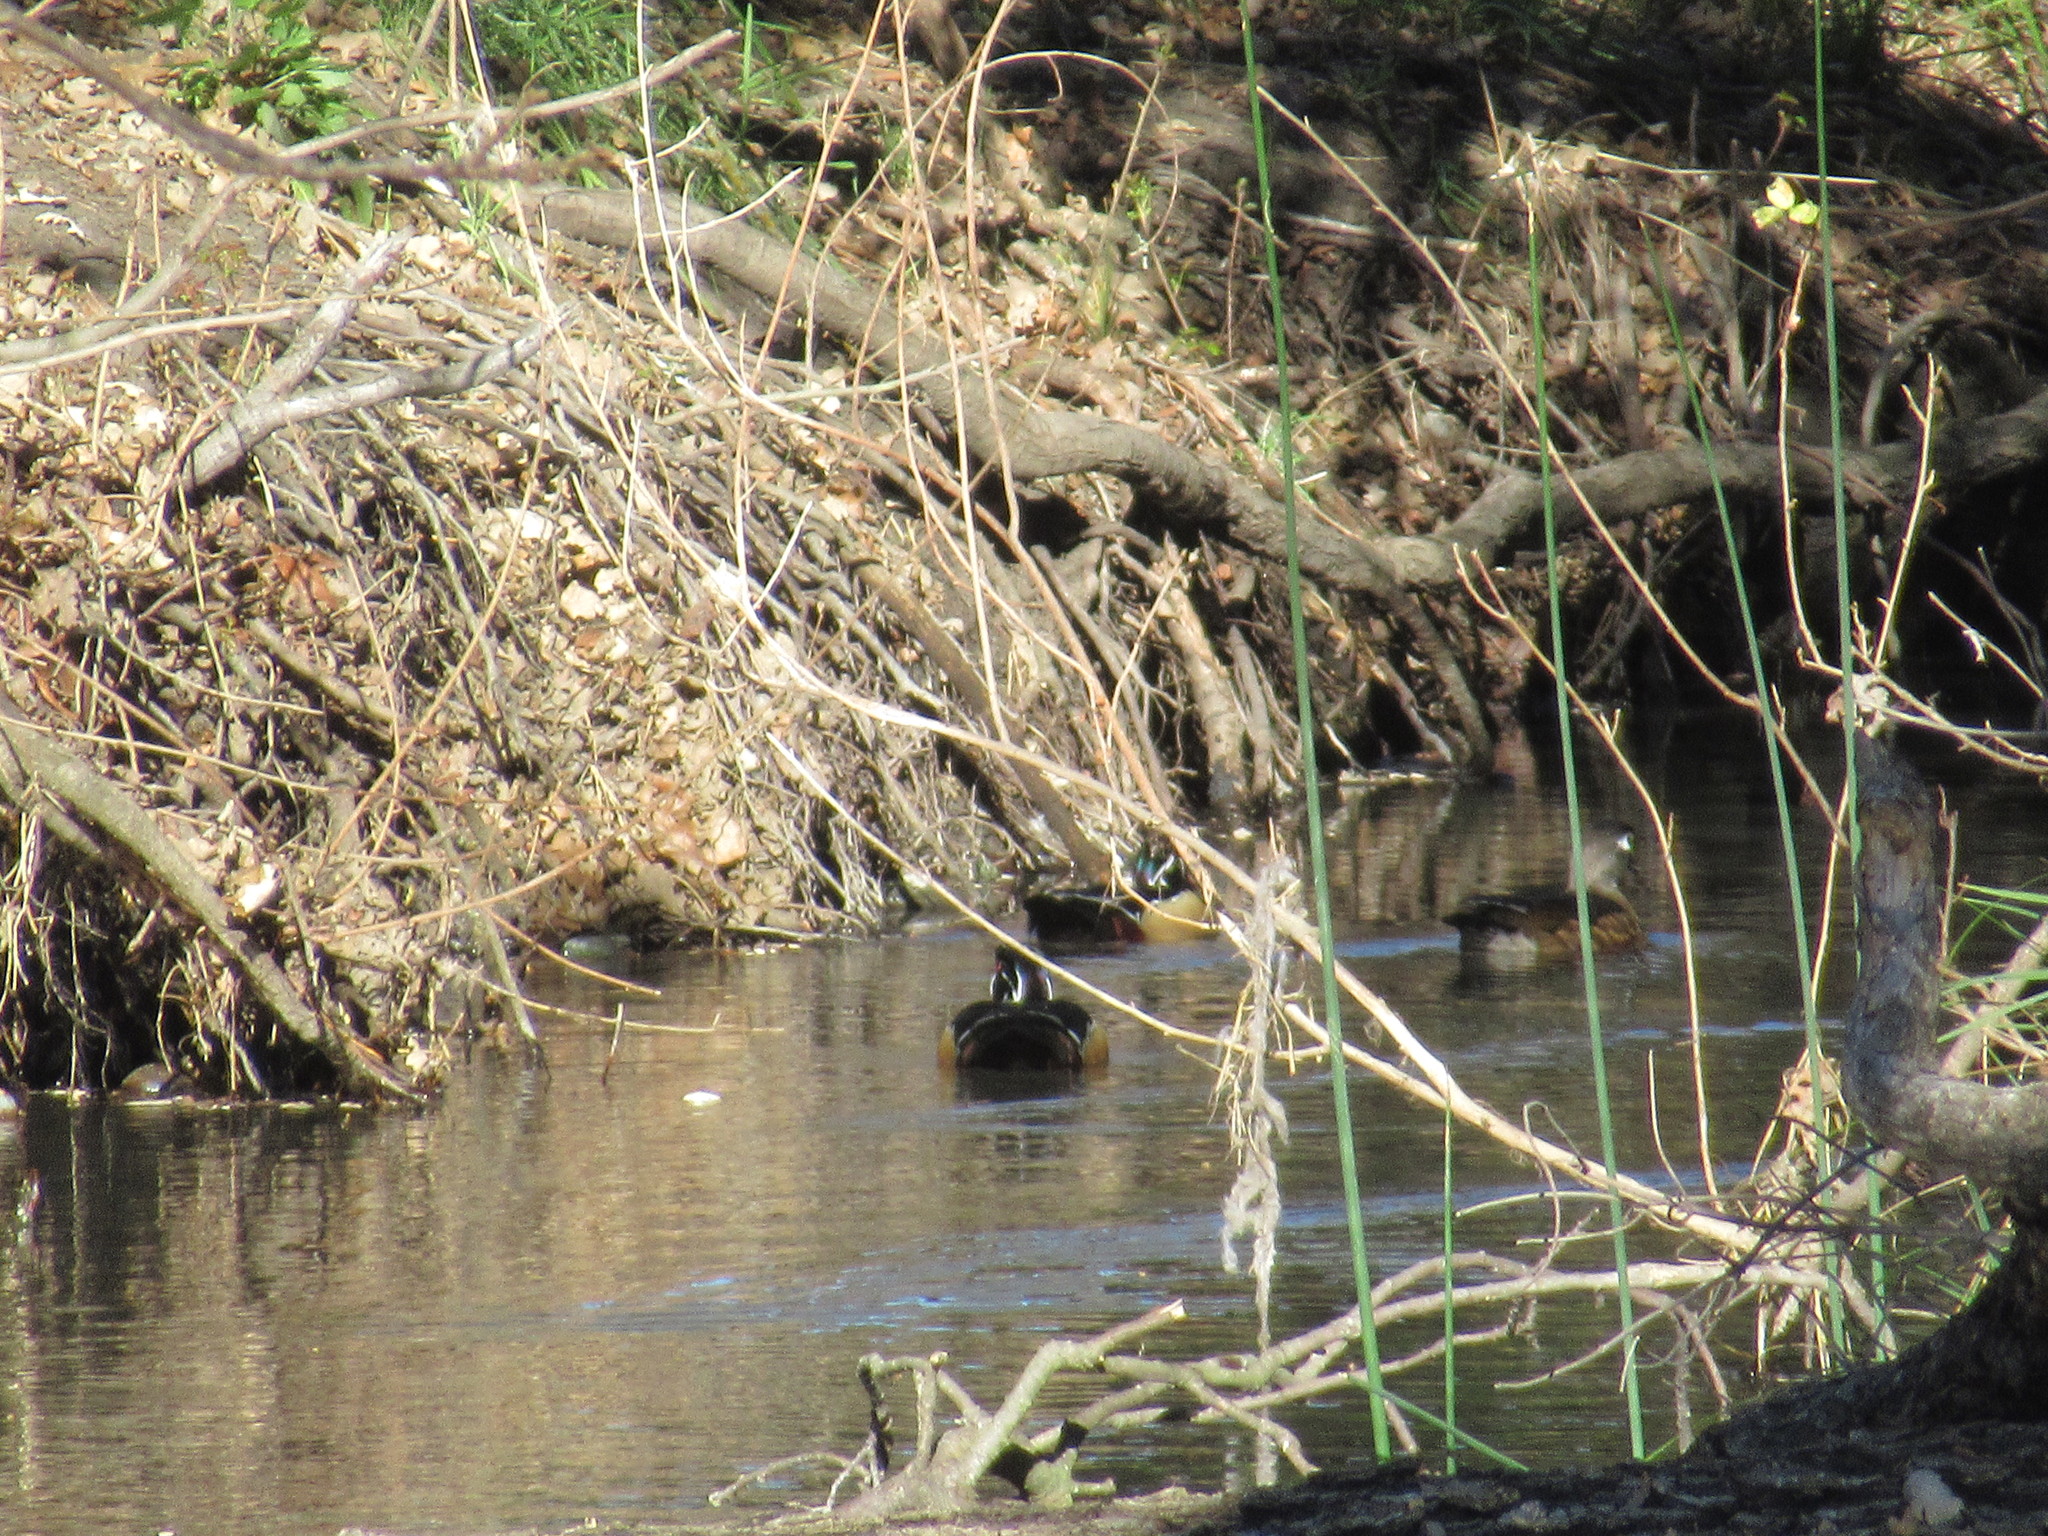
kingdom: Animalia
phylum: Chordata
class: Aves
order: Anseriformes
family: Anatidae
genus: Aix
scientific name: Aix sponsa
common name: Wood duck
